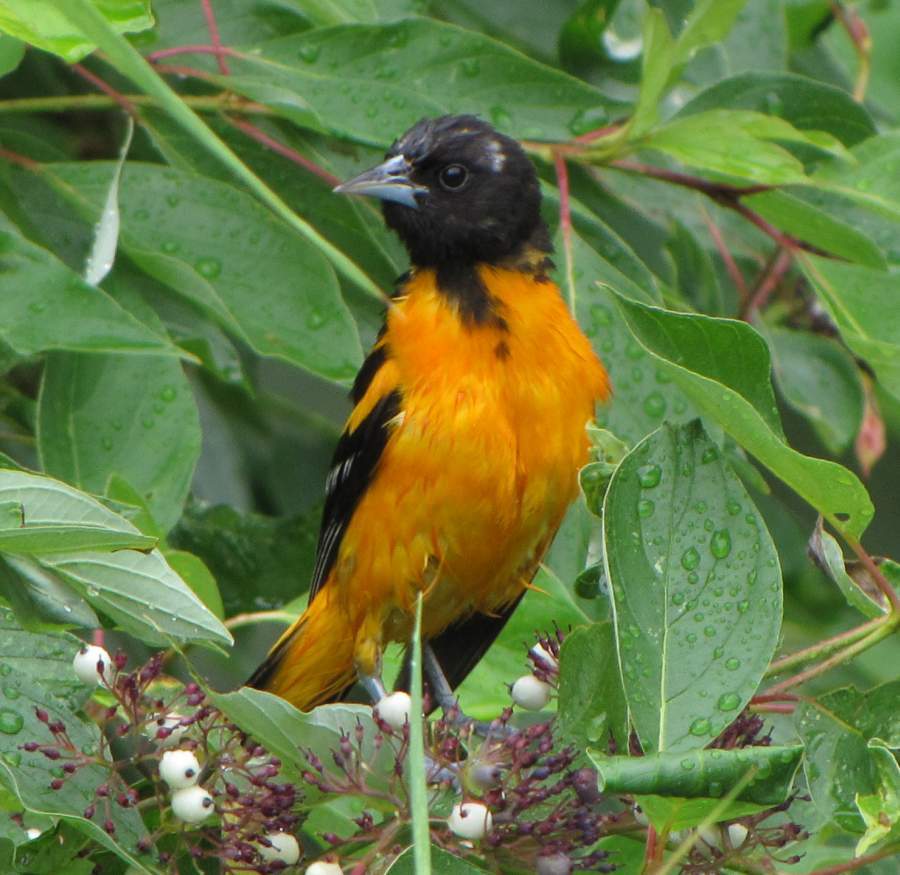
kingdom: Animalia
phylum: Chordata
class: Aves
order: Passeriformes
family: Icteridae
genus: Icterus
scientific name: Icterus galbula
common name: Baltimore oriole
